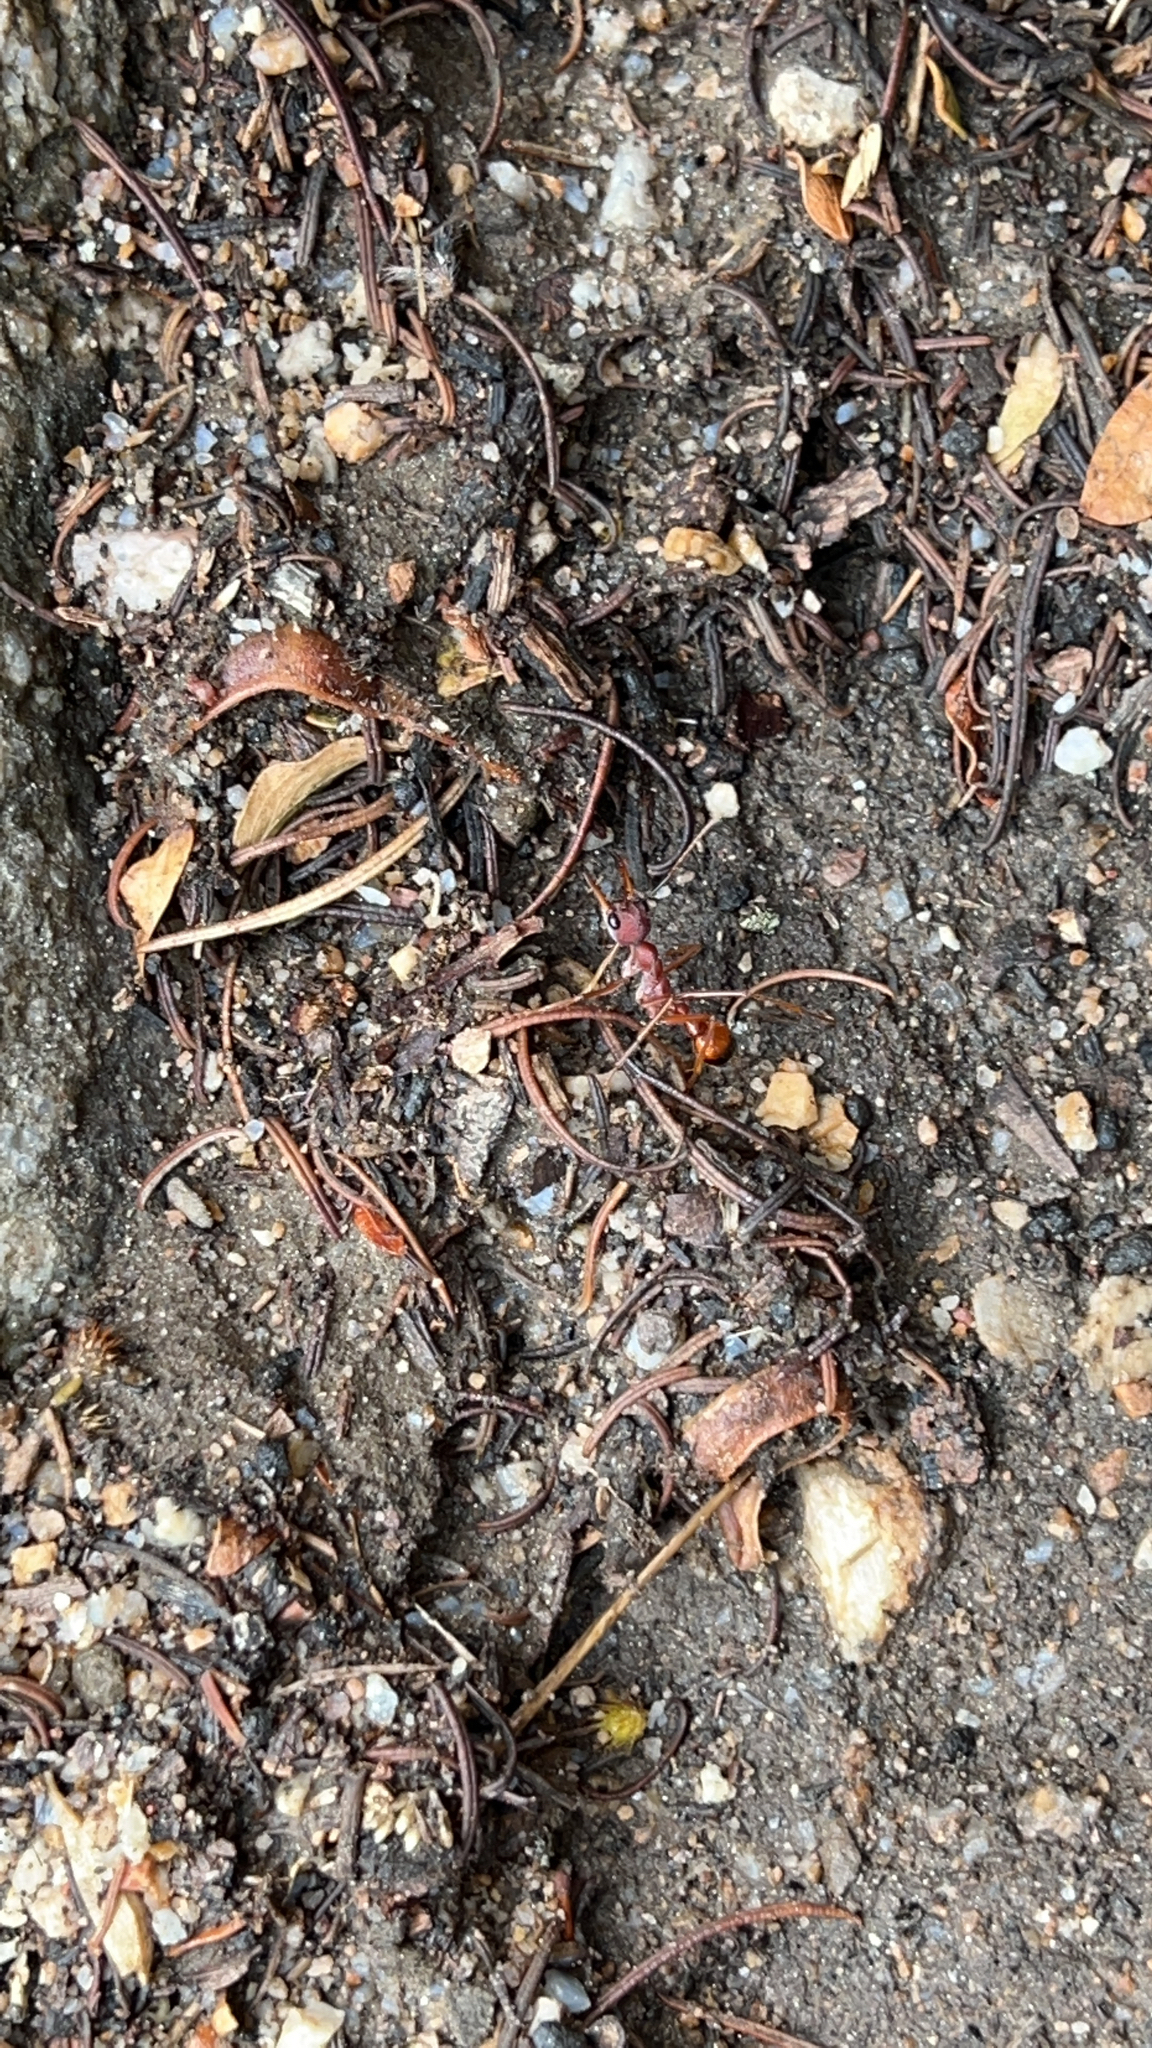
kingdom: Animalia
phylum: Arthropoda
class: Insecta
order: Hymenoptera
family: Formicidae
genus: Myrmecia
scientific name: Myrmecia nigriscapa
